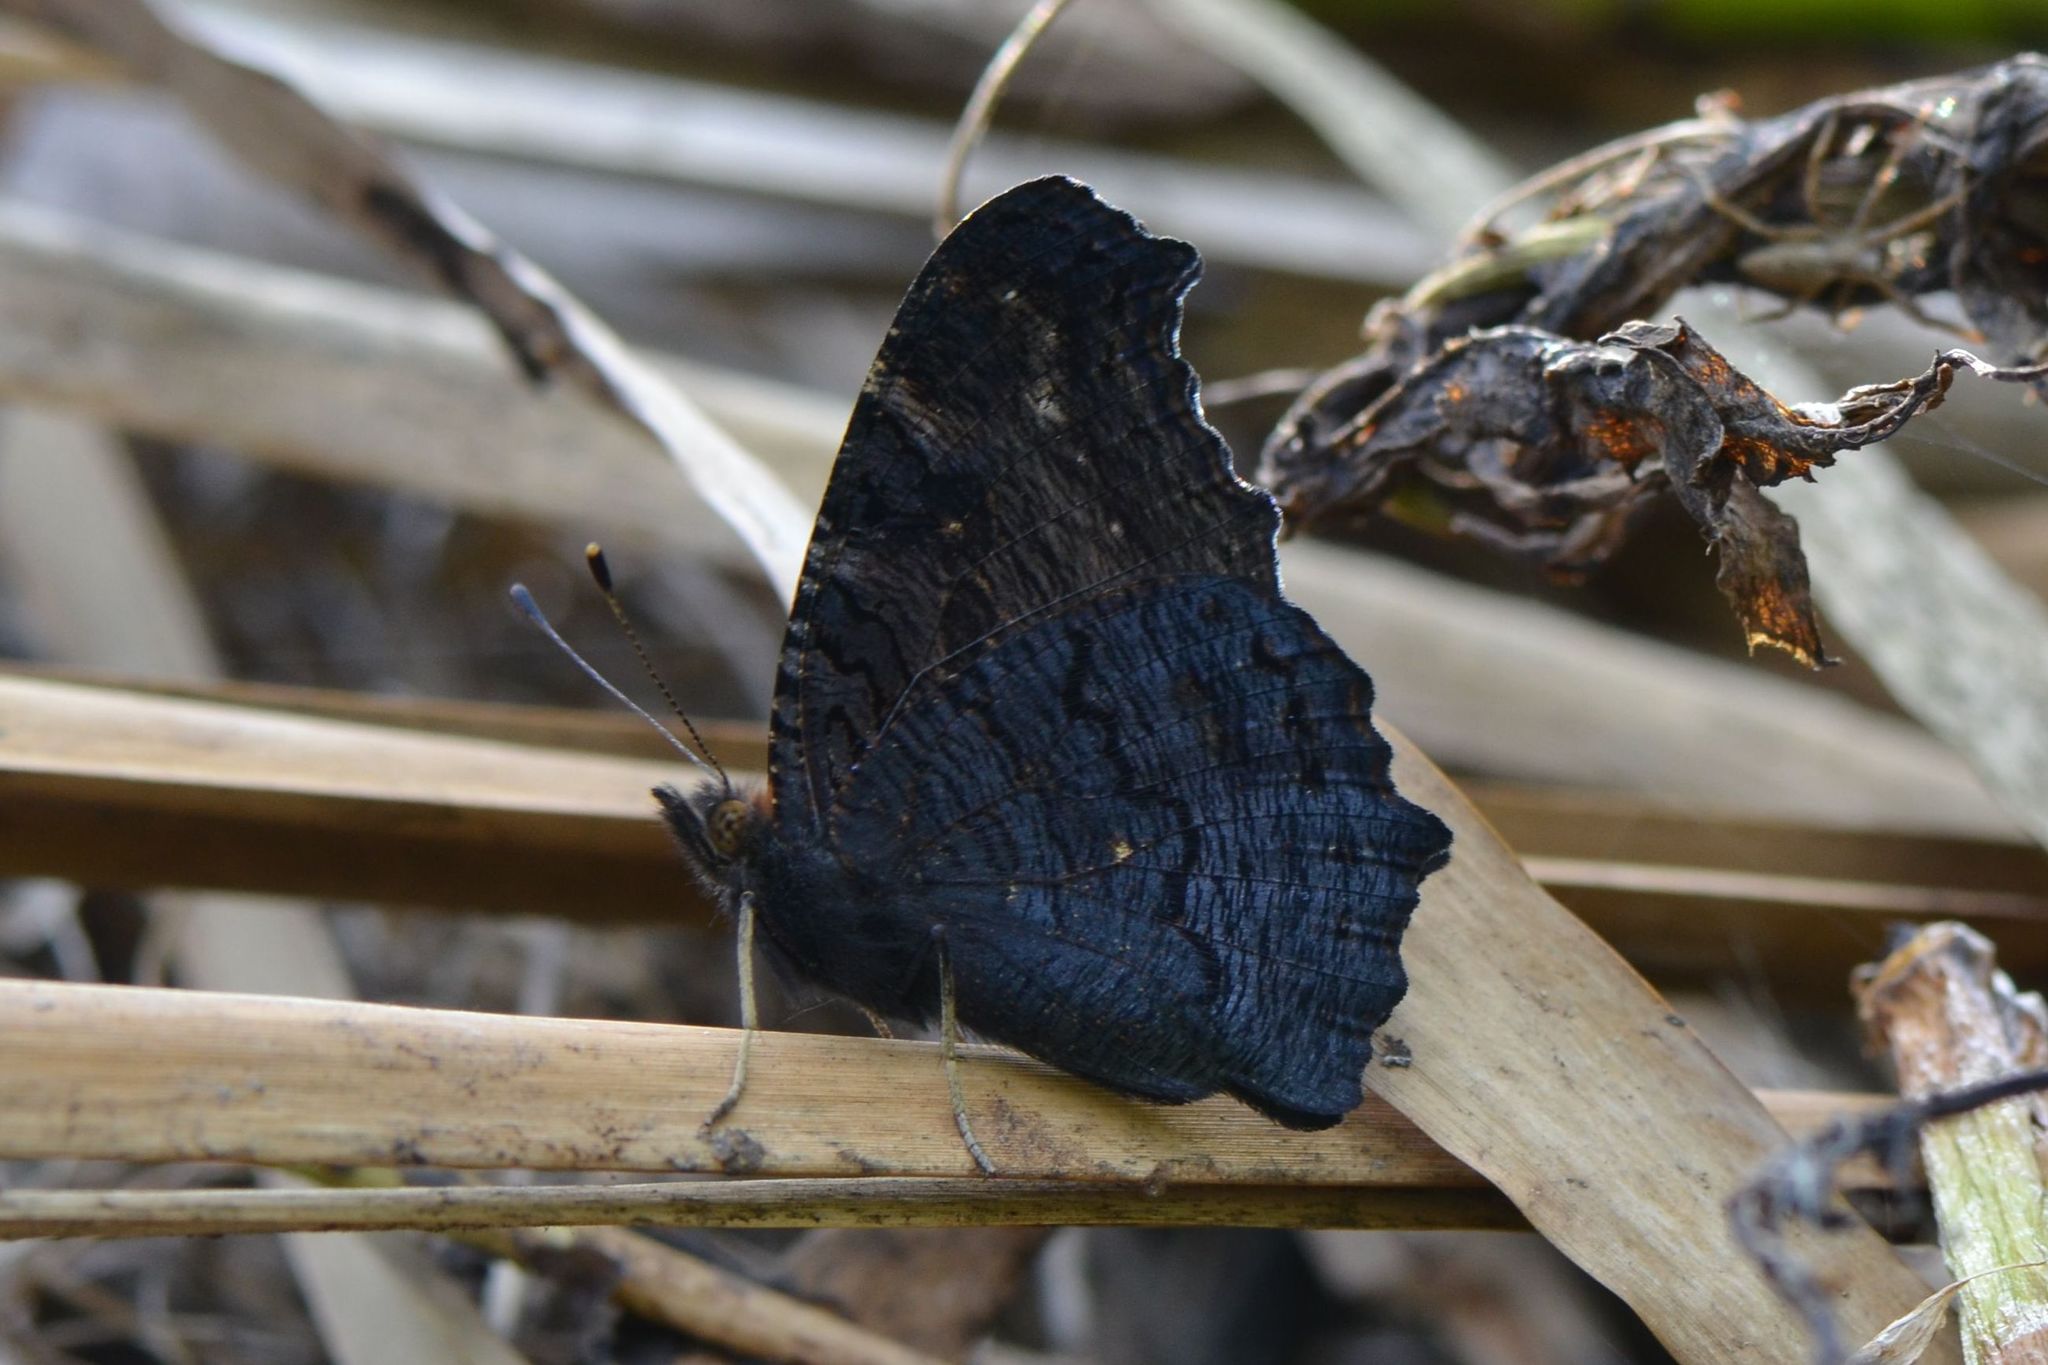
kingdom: Animalia
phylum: Arthropoda
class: Insecta
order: Lepidoptera
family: Nymphalidae
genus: Aglais
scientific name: Aglais io
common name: Peacock
